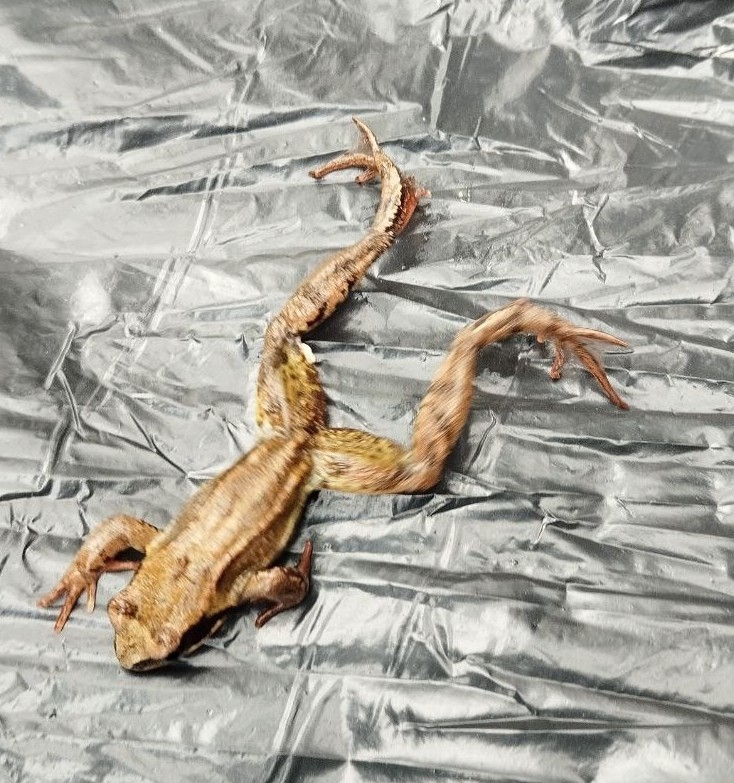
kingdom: Animalia
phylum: Chordata
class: Amphibia
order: Anura
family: Ranidae
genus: Rana
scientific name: Rana temporaria
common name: Common frog
